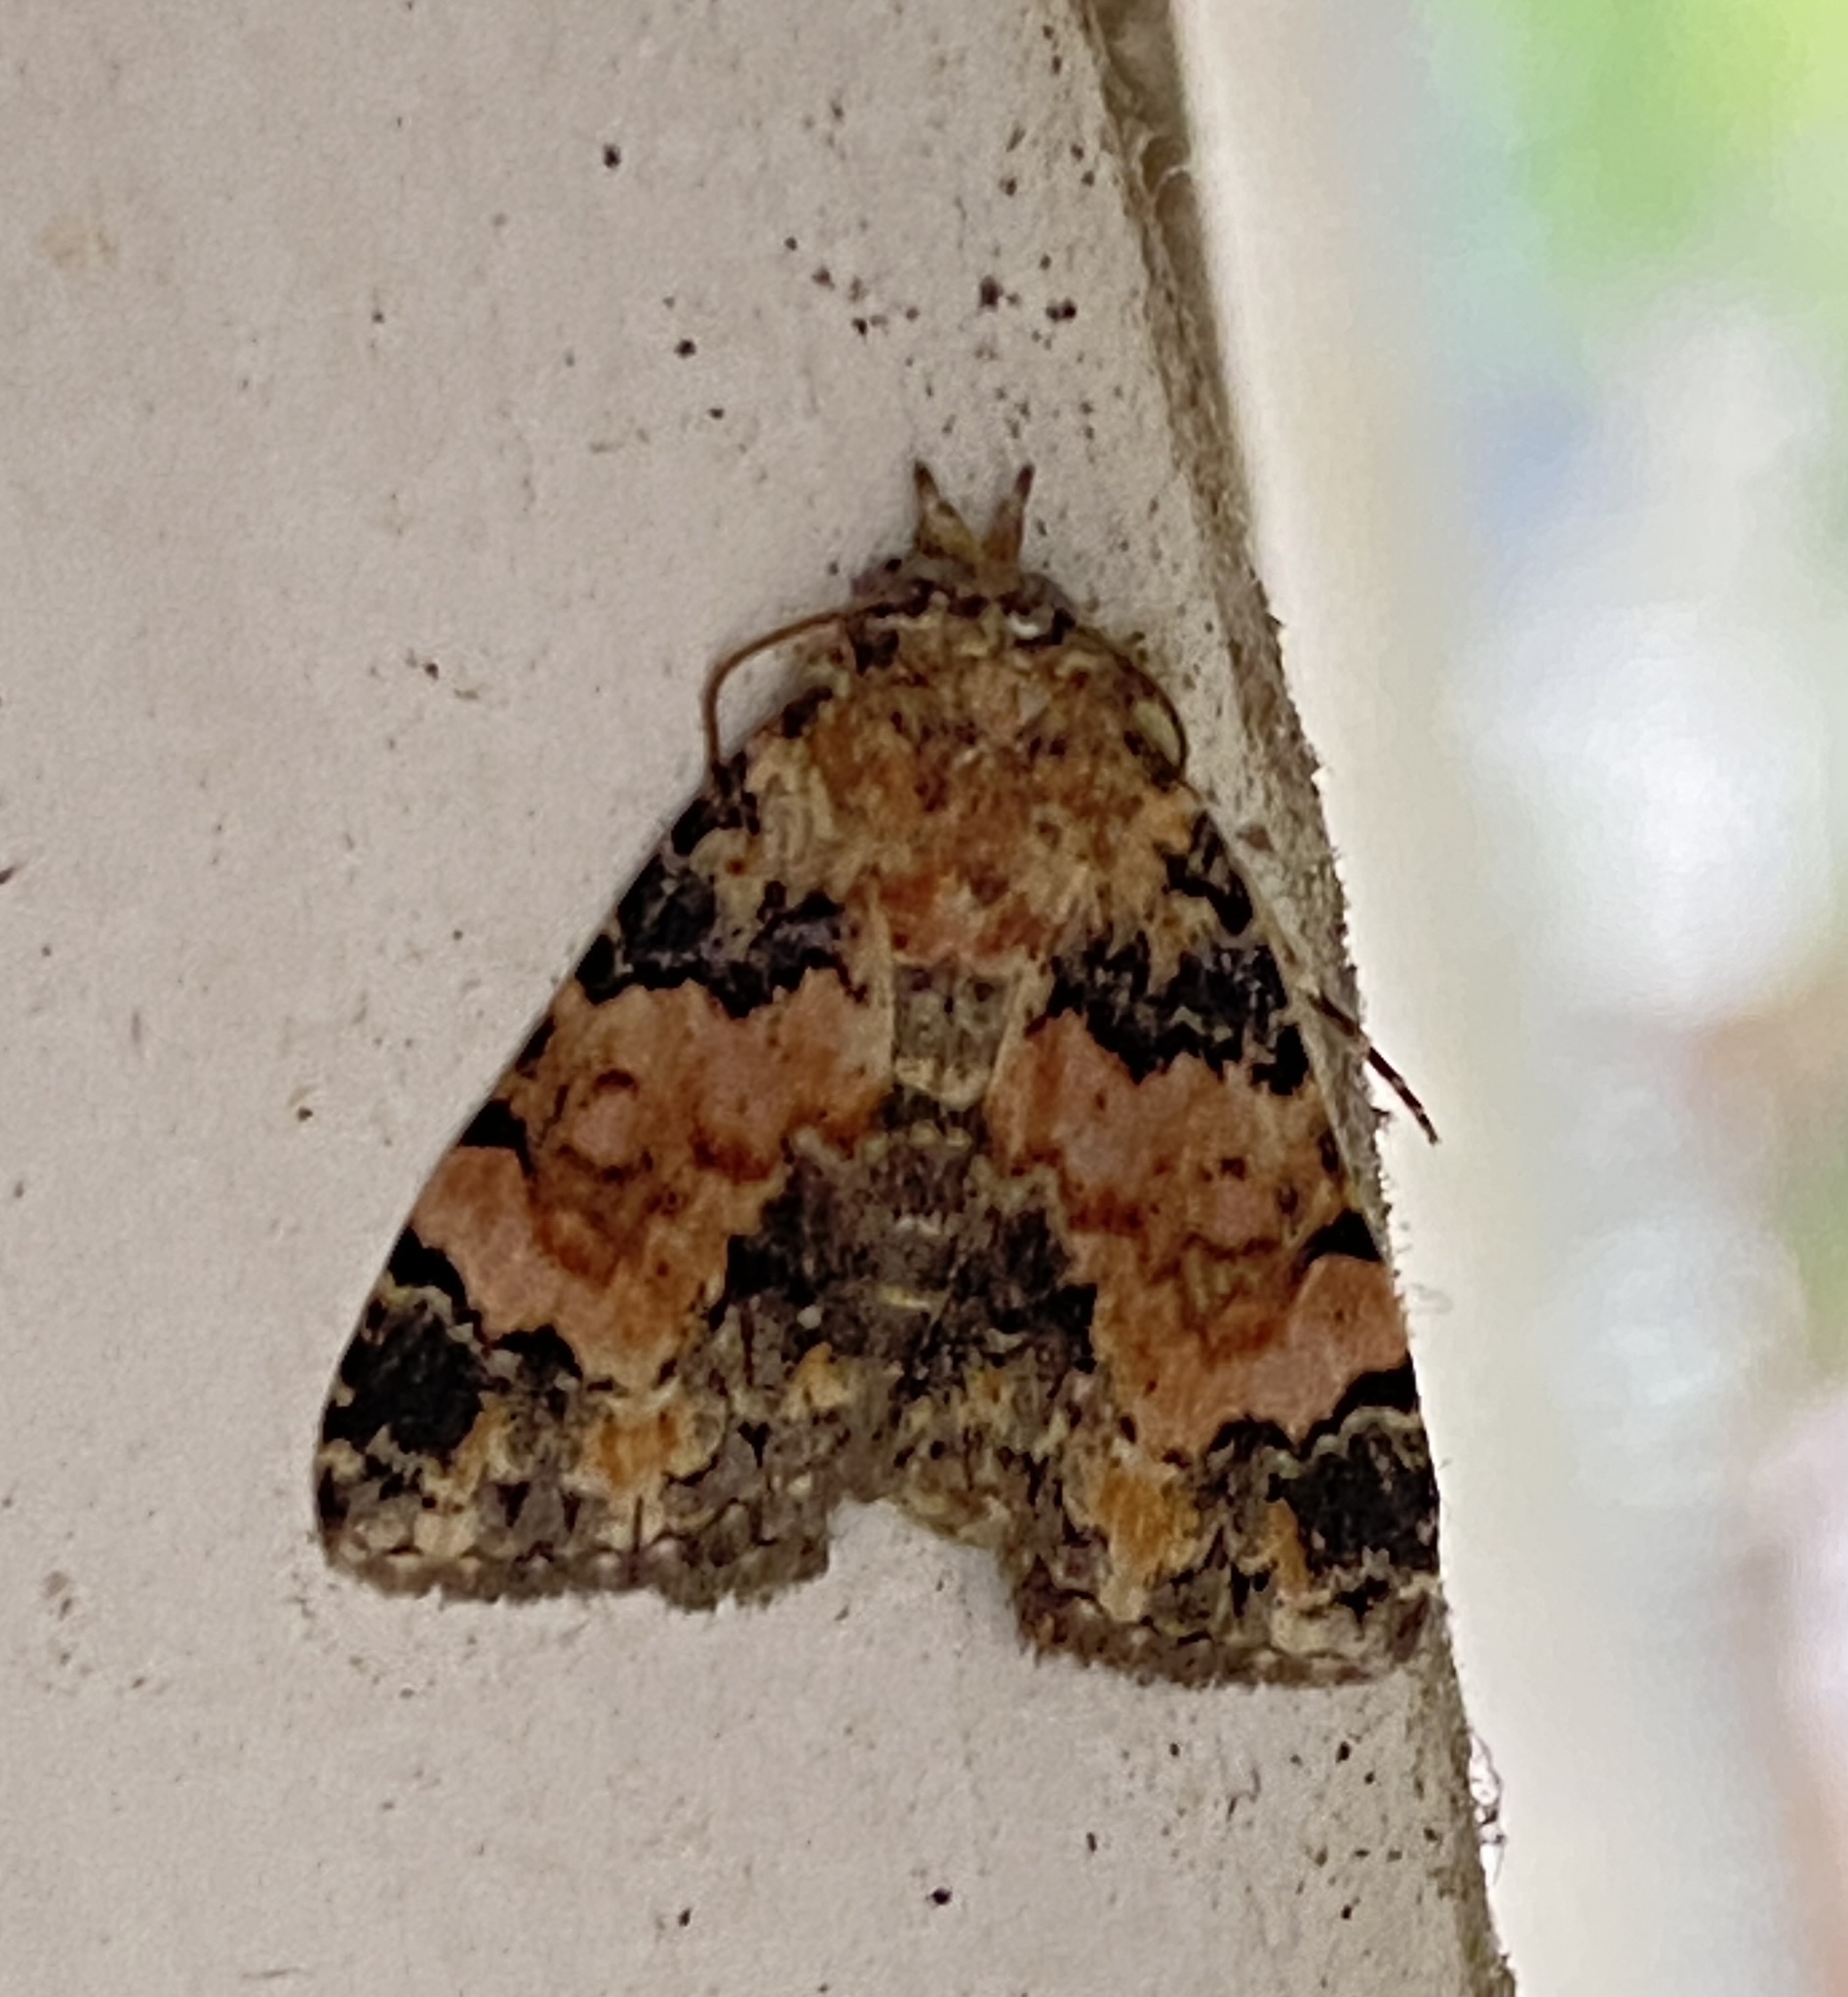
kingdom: Animalia
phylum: Arthropoda
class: Insecta
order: Lepidoptera
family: Noctuidae
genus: Eublemma
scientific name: Eublemma decora
